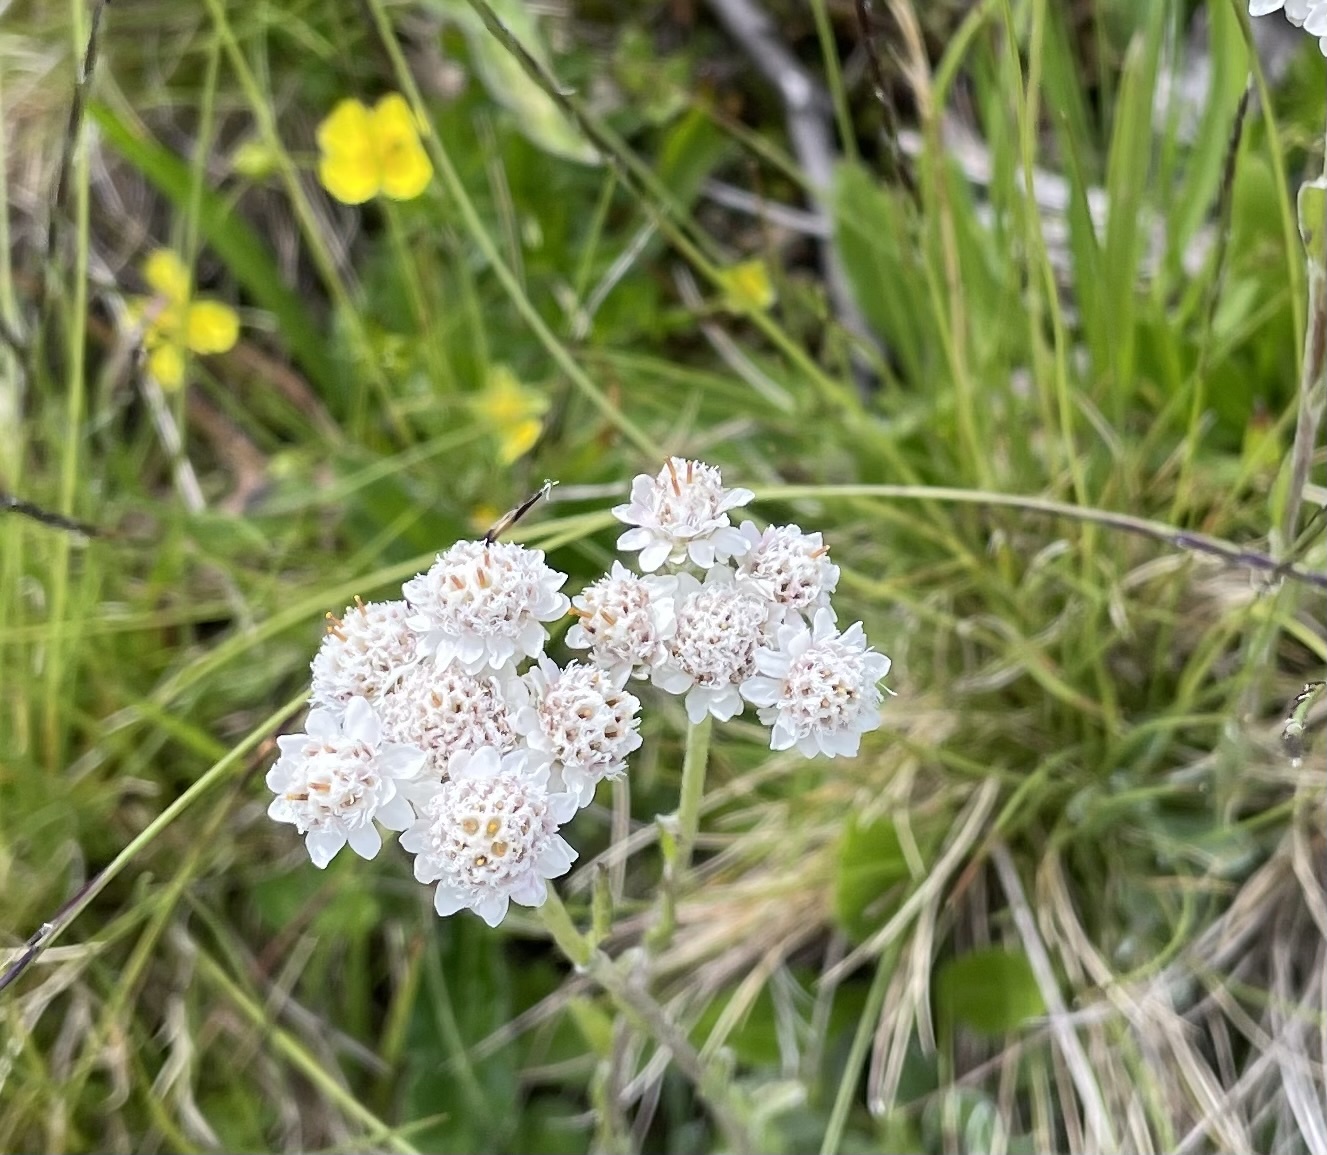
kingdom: Plantae
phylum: Tracheophyta
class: Magnoliopsida
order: Asterales
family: Asteraceae
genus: Antennaria
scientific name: Antennaria dioica
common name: Mountain everlasting
